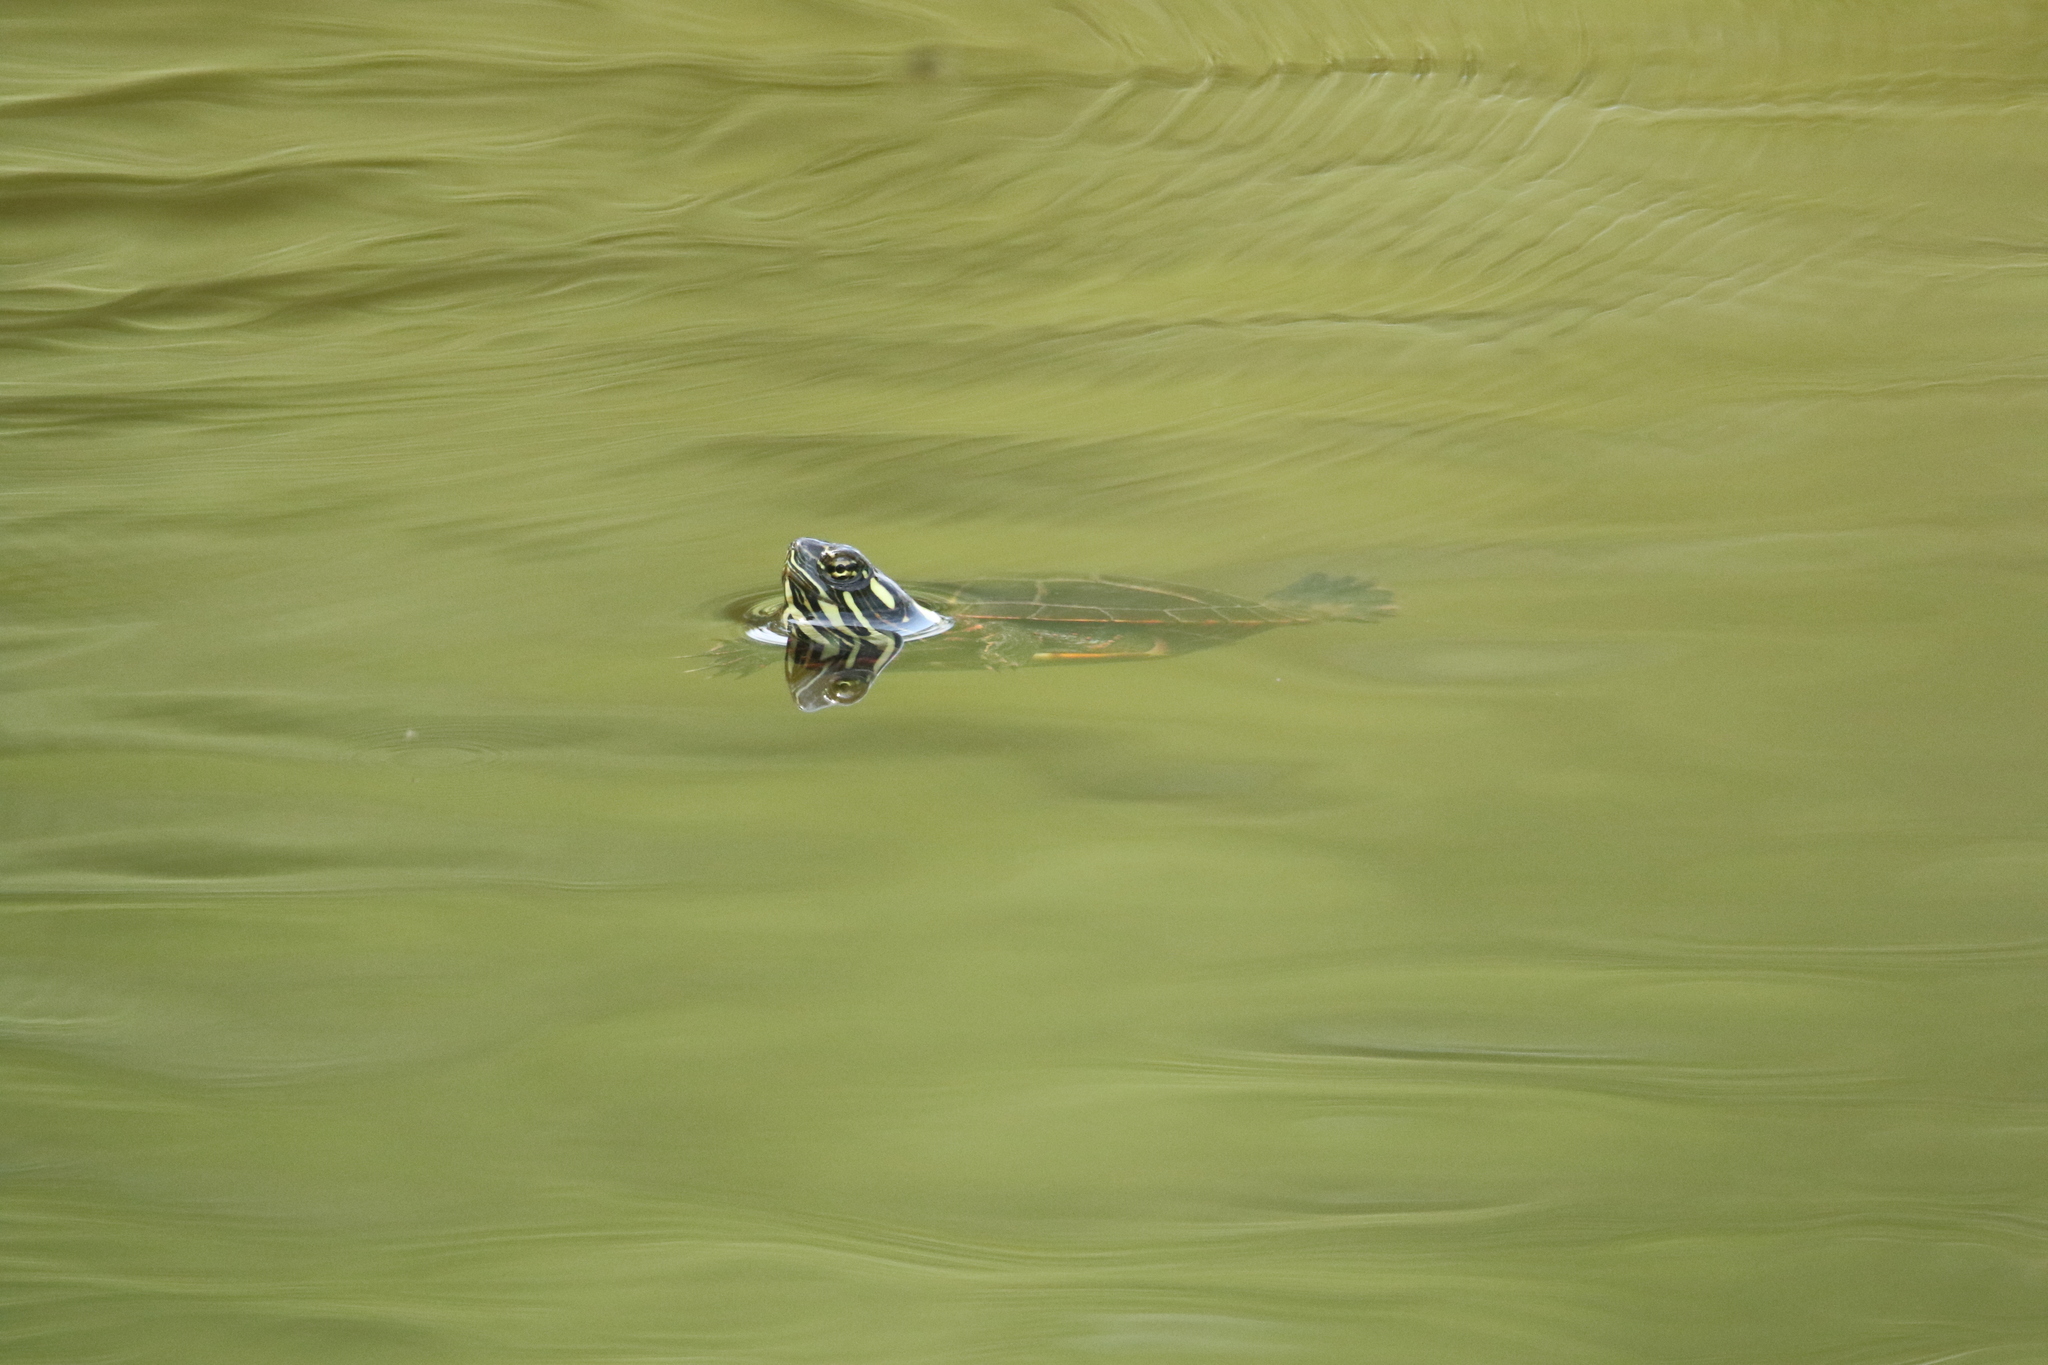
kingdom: Animalia
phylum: Chordata
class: Testudines
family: Emydidae
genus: Chrysemys
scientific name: Chrysemys picta
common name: Painted turtle
